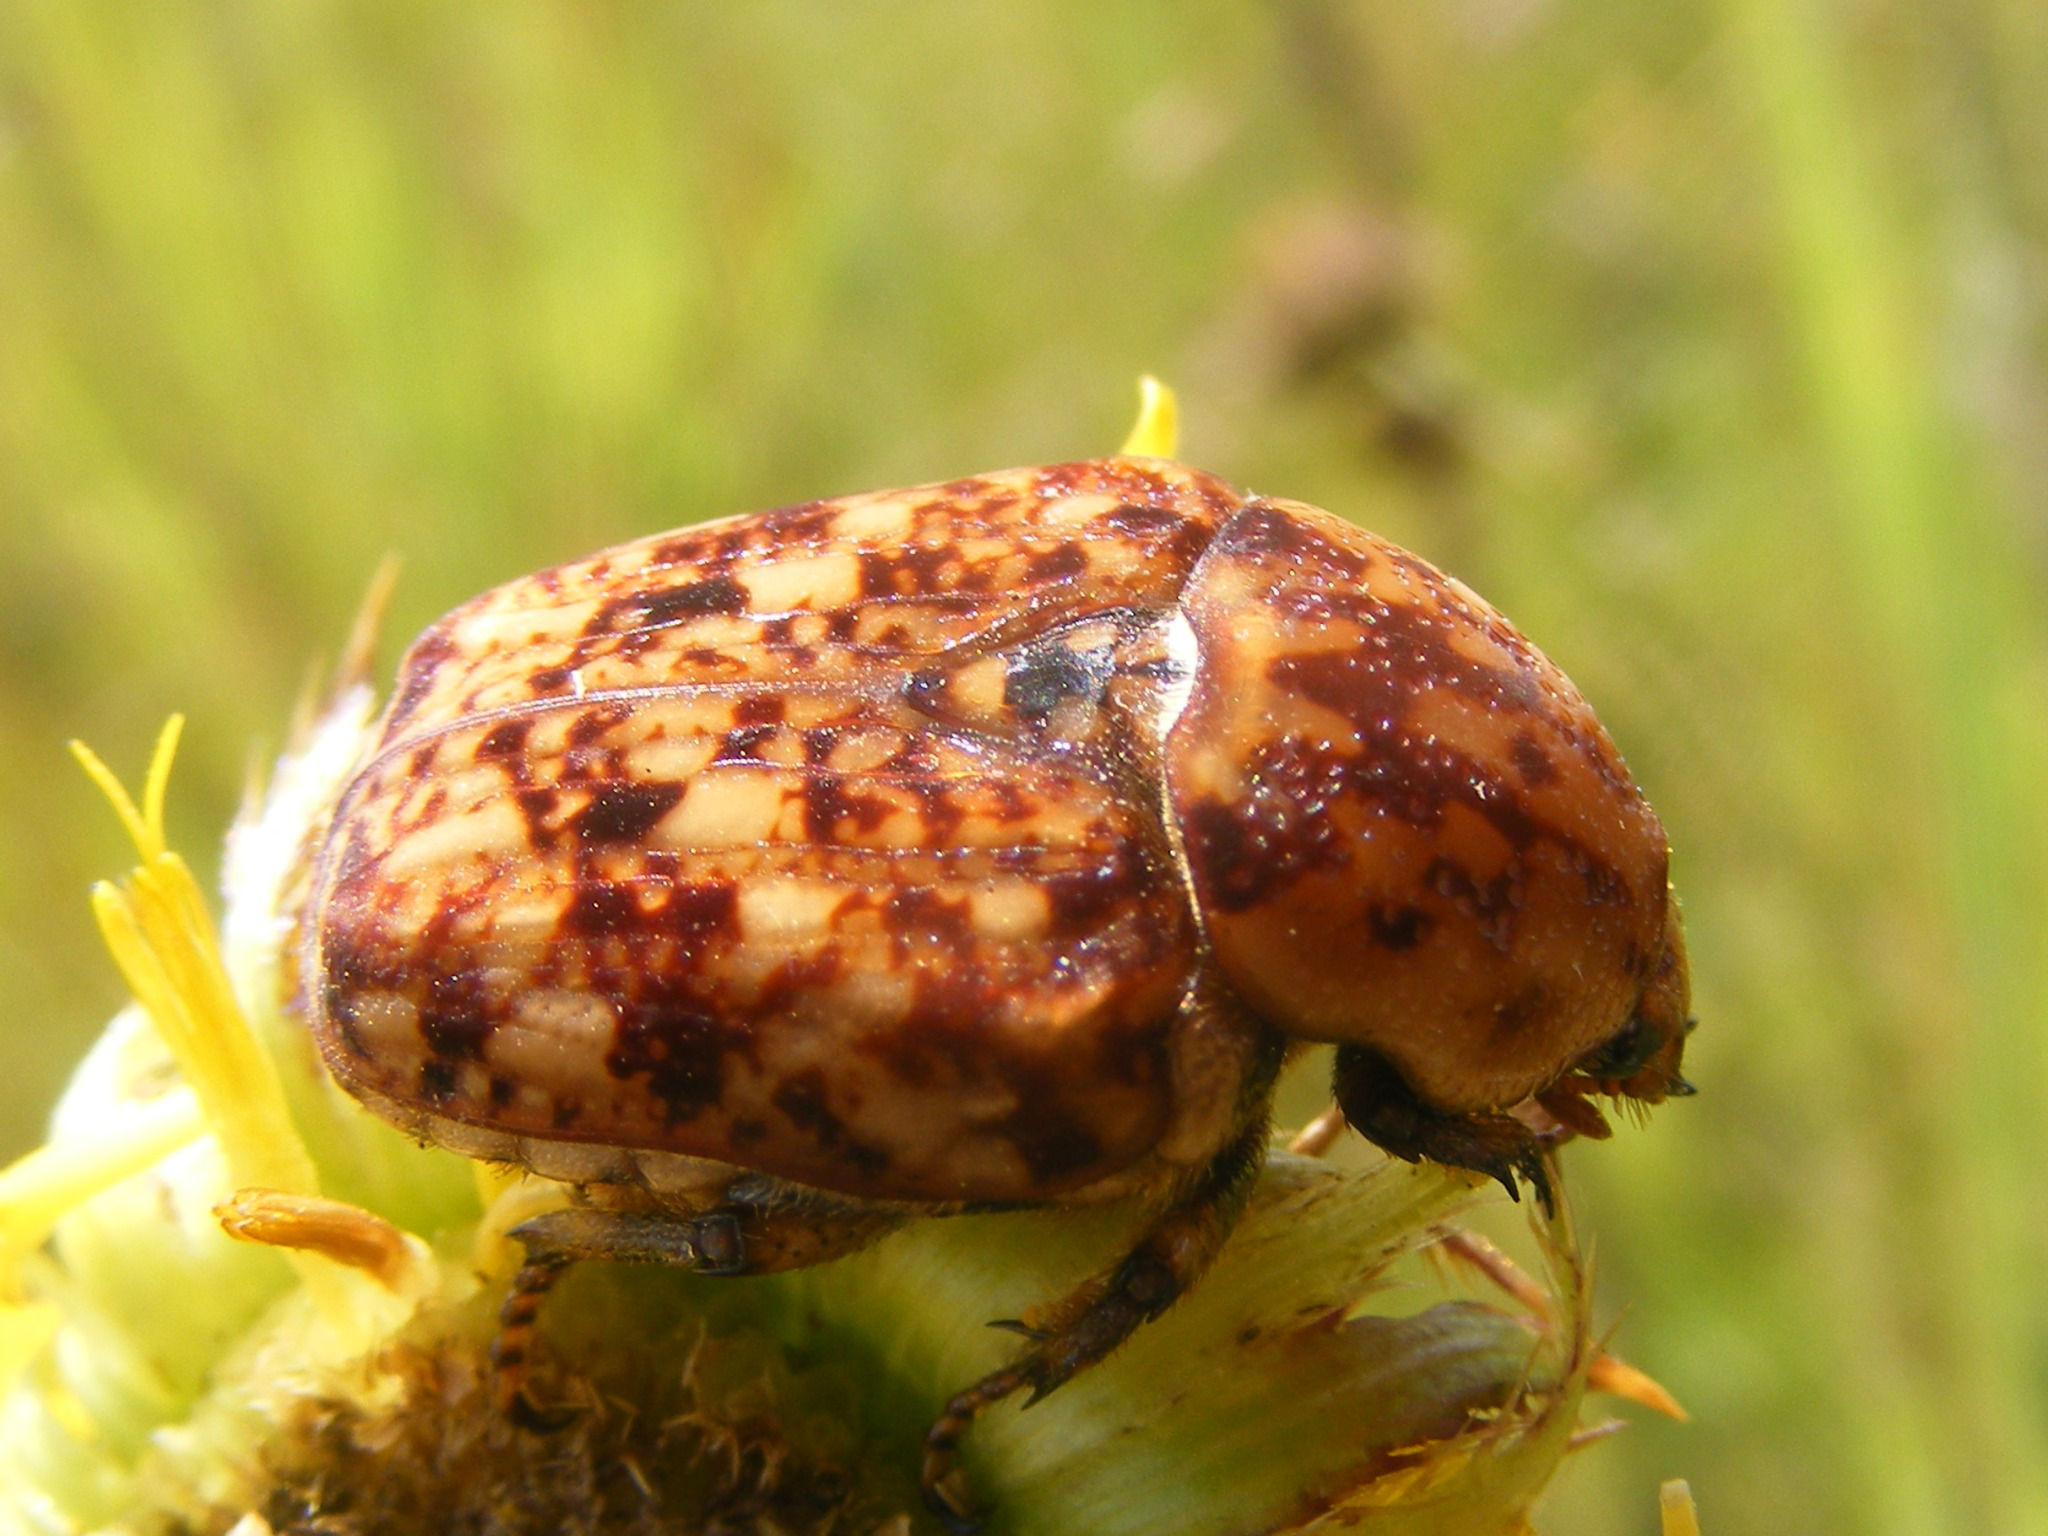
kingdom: Animalia
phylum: Arthropoda
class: Insecta
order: Coleoptera
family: Scarabaeidae
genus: Porphyronota
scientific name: Porphyronota hebraea
